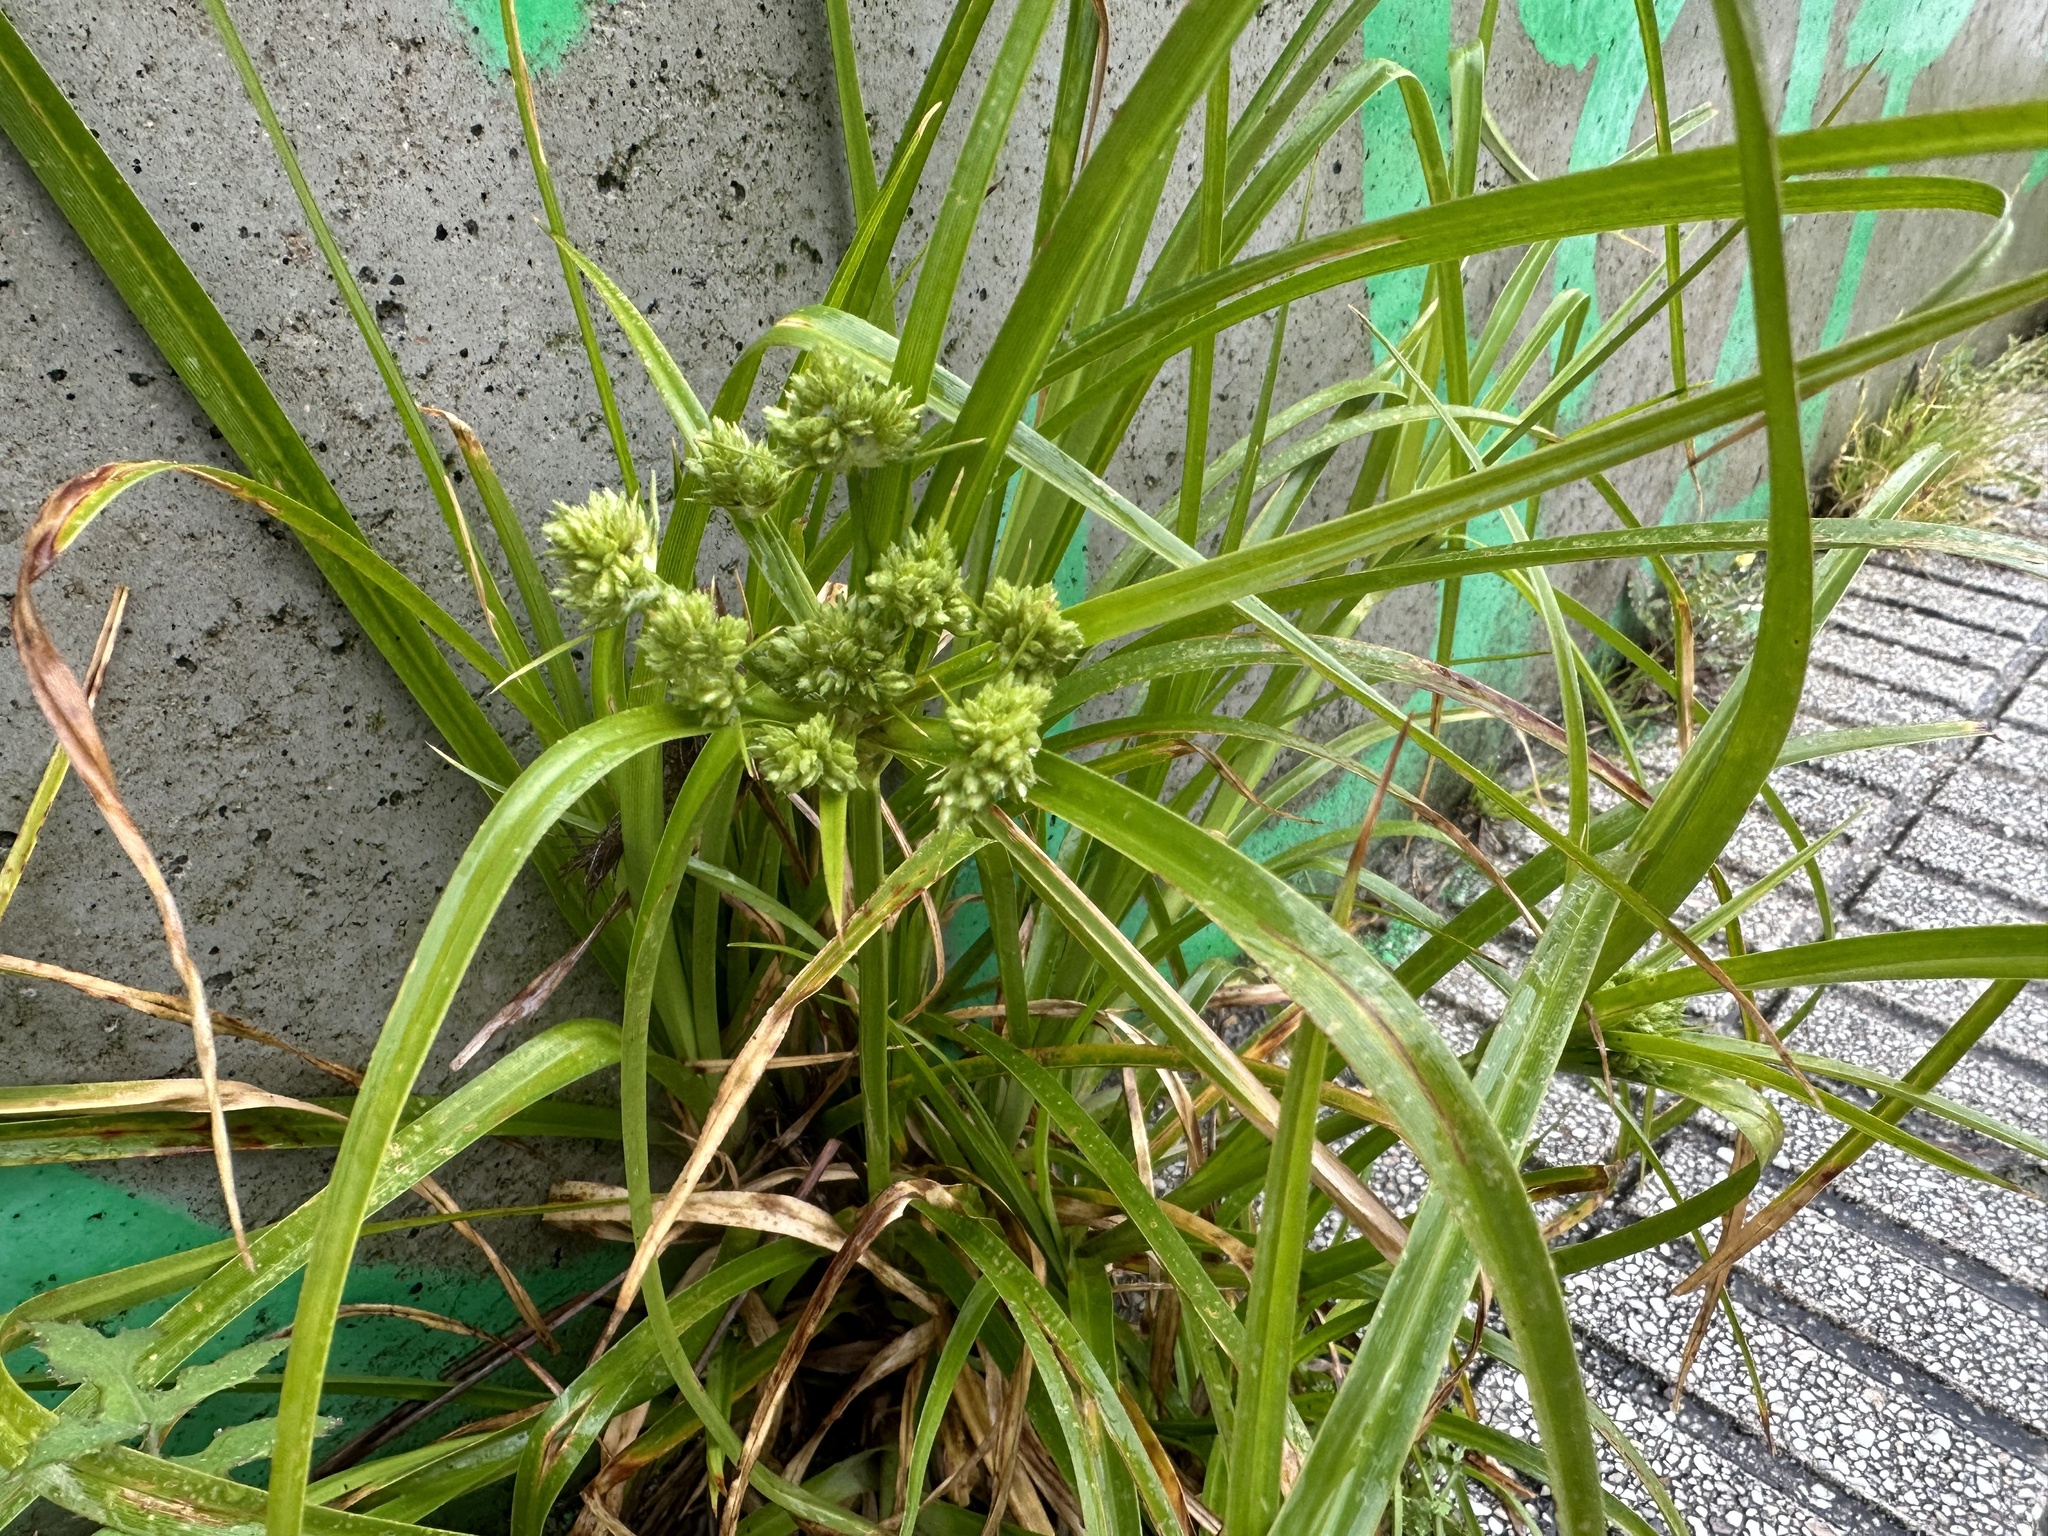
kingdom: Plantae
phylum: Tracheophyta
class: Liliopsida
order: Poales
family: Cyperaceae
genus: Cyperus
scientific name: Cyperus eragrostis
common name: Tall flatsedge
